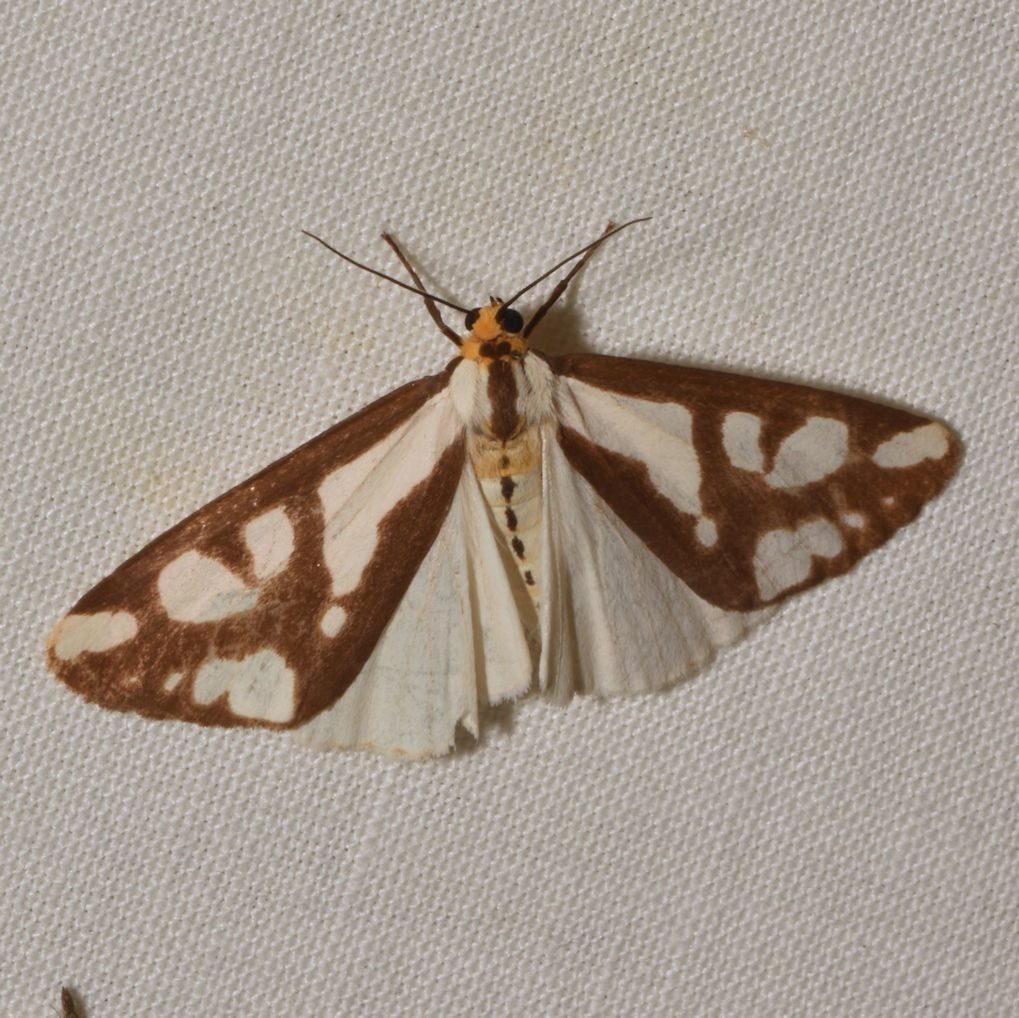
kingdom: Animalia
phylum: Arthropoda
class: Insecta
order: Lepidoptera
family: Erebidae
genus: Haploa
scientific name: Haploa confusa
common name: Confused haploa moth
